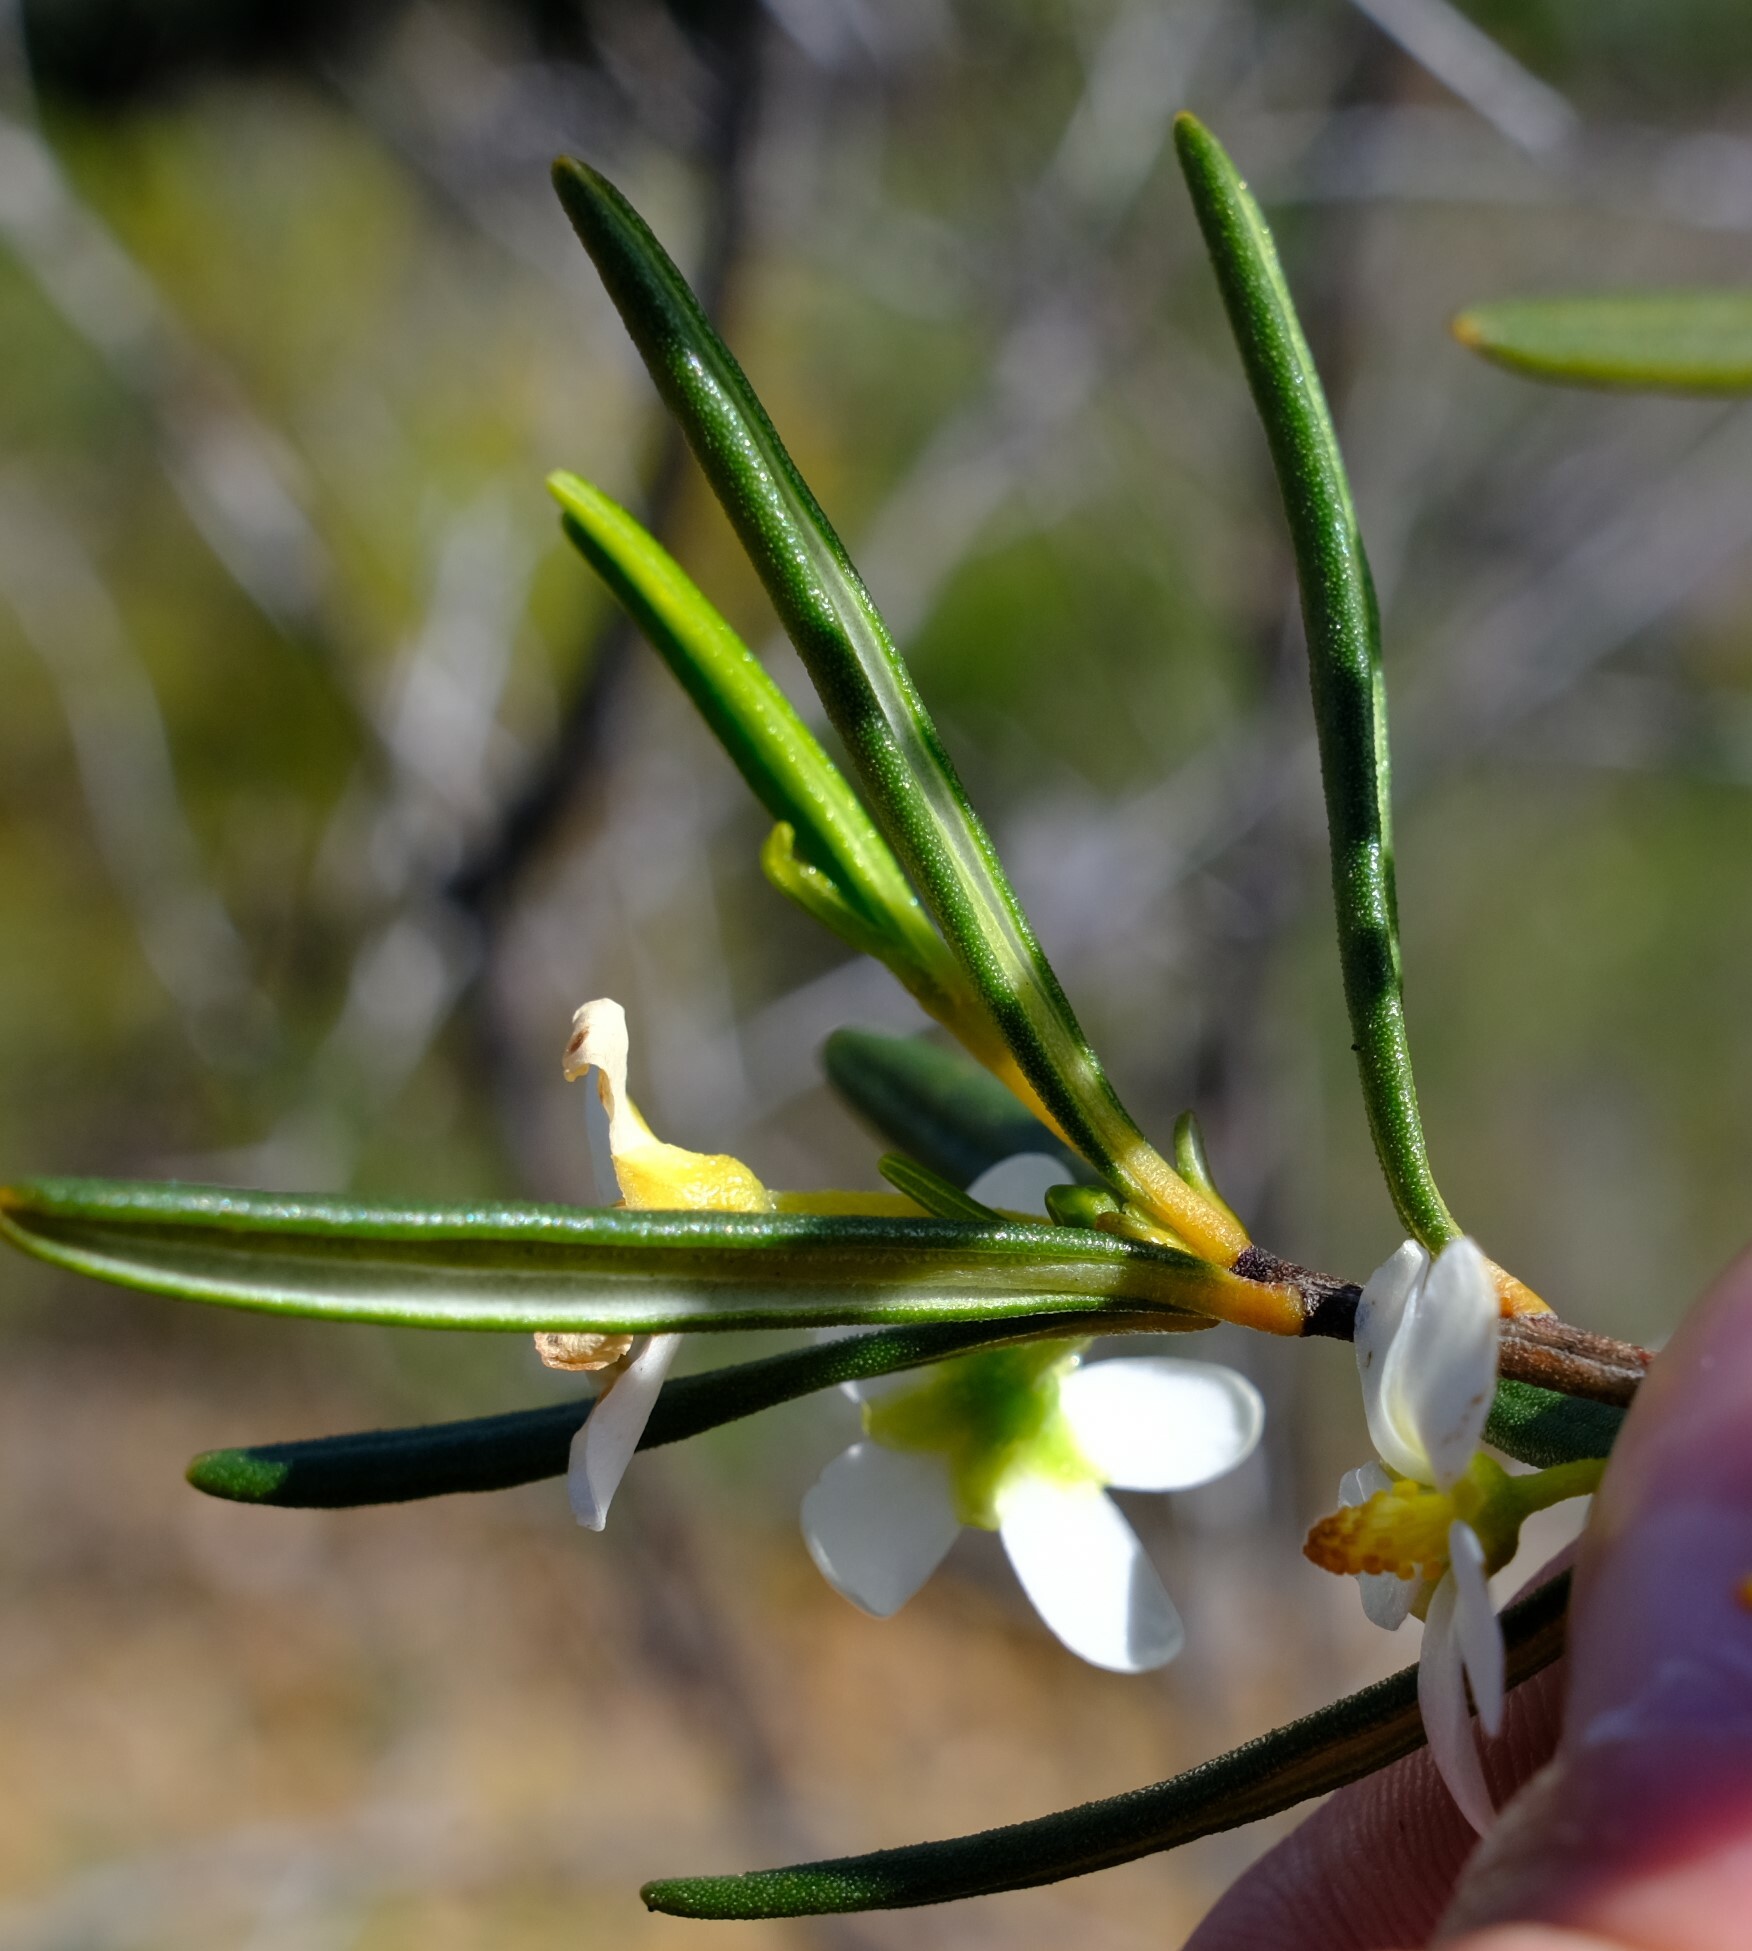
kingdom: Plantae
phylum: Tracheophyta
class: Magnoliopsida
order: Malpighiales
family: Euphorbiaceae
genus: Ricinocarpos
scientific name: Ricinocarpos psilocladus
